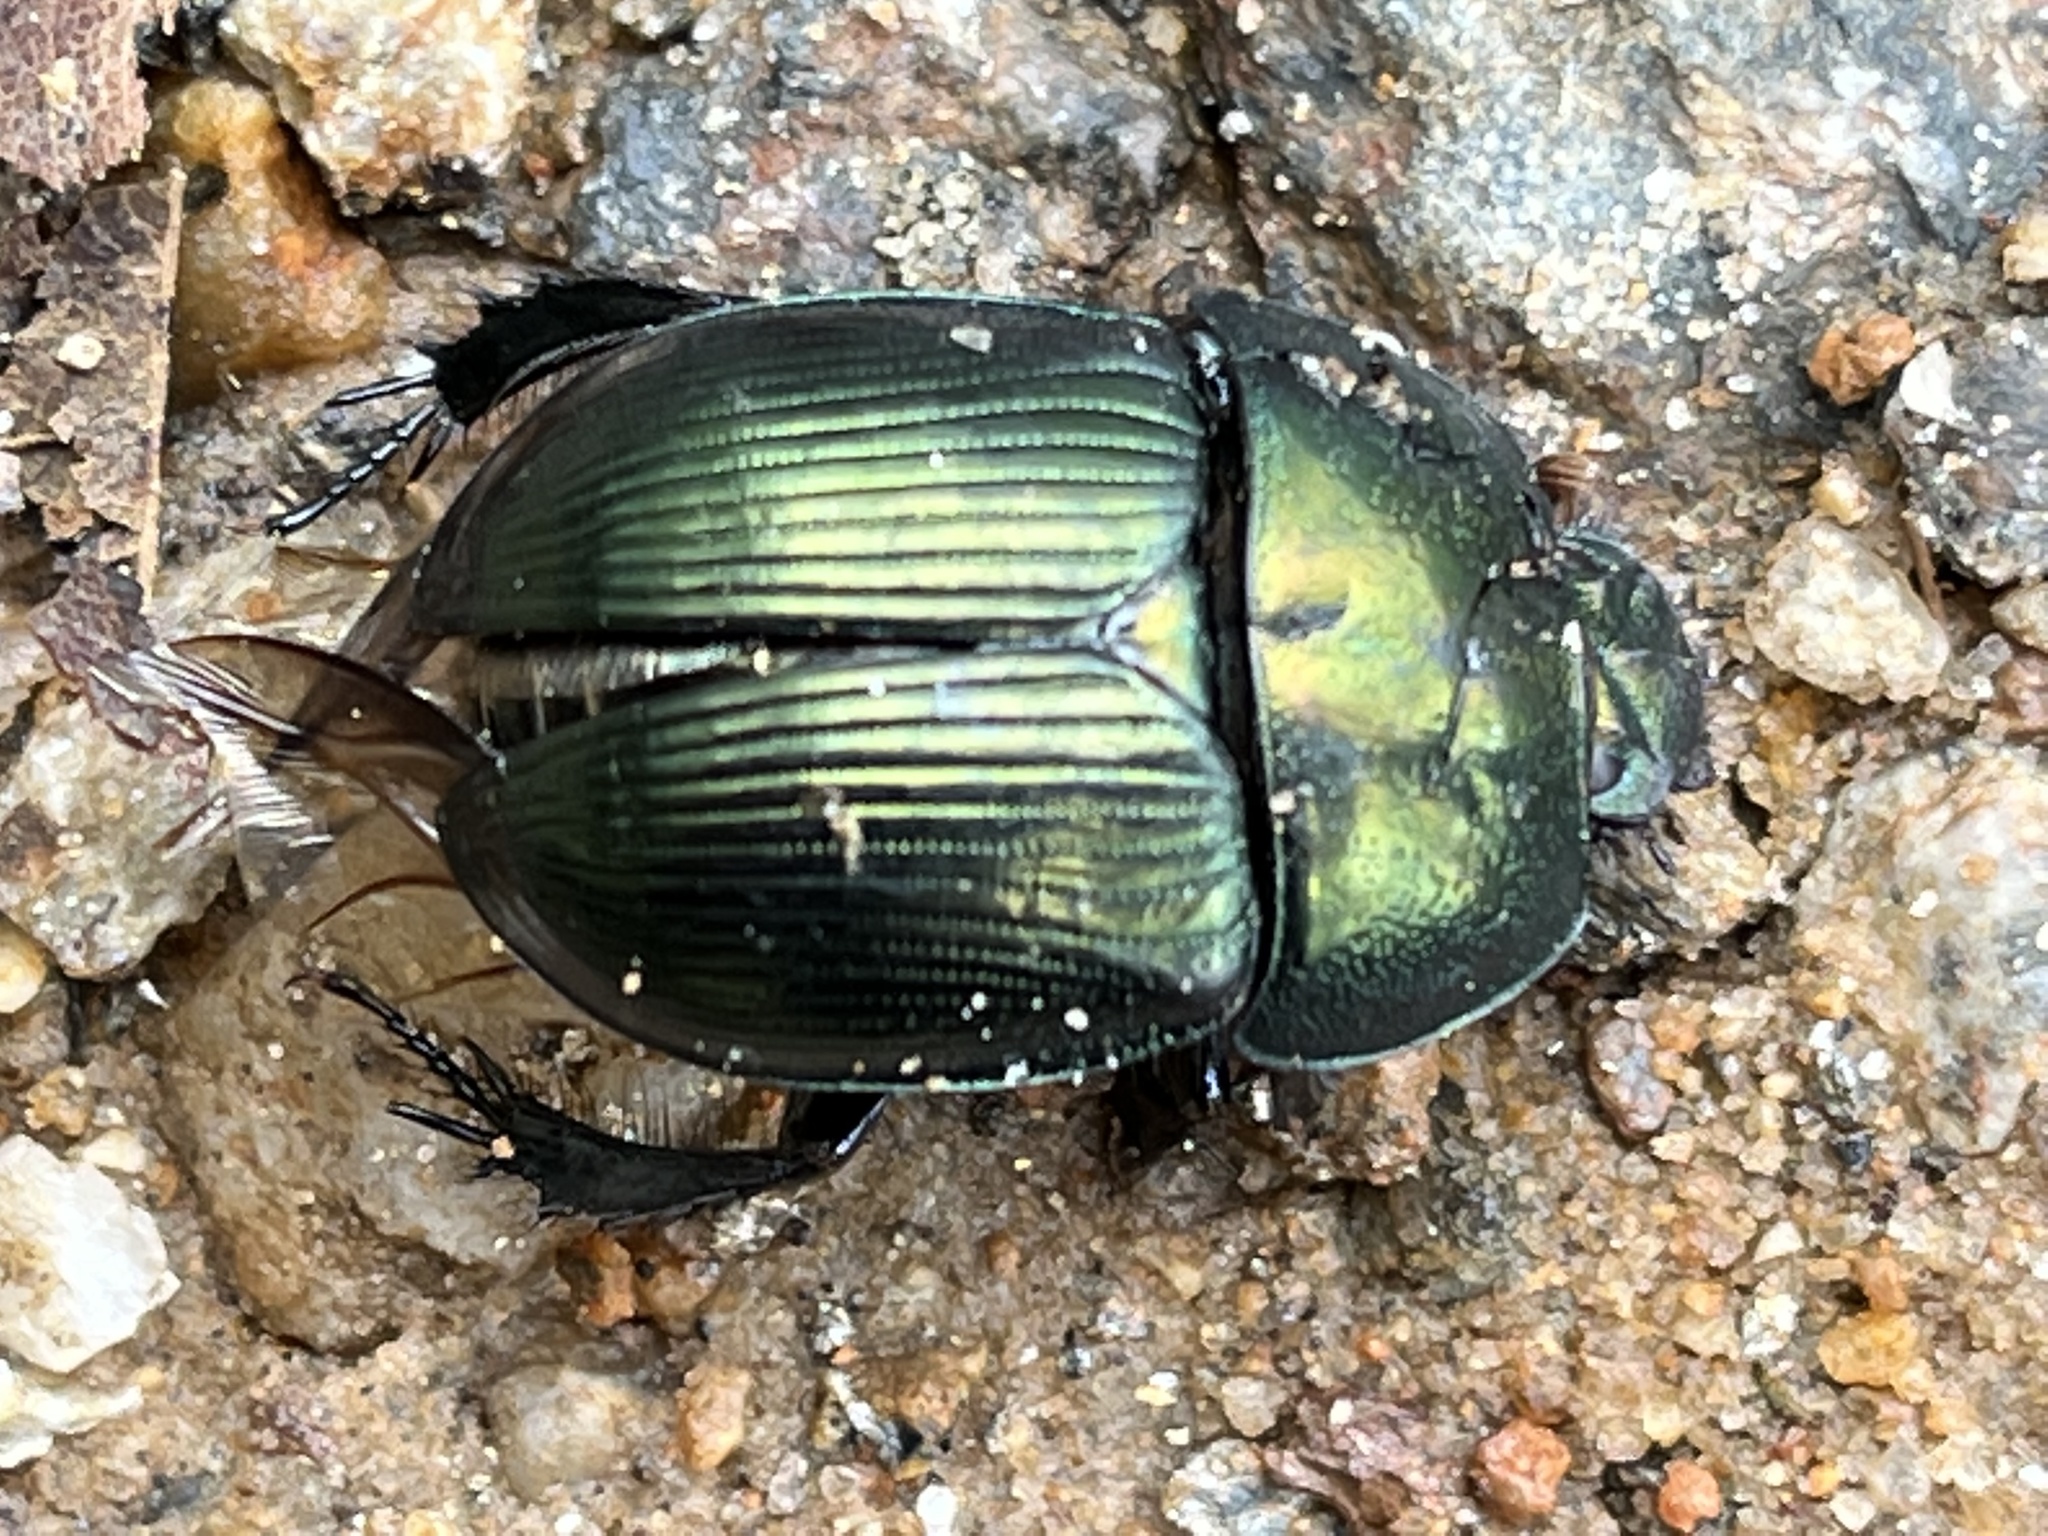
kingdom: Animalia
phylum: Arthropoda
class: Insecta
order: Coleoptera
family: Geotrupidae
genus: Geotrupes
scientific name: Geotrupes splendidus
